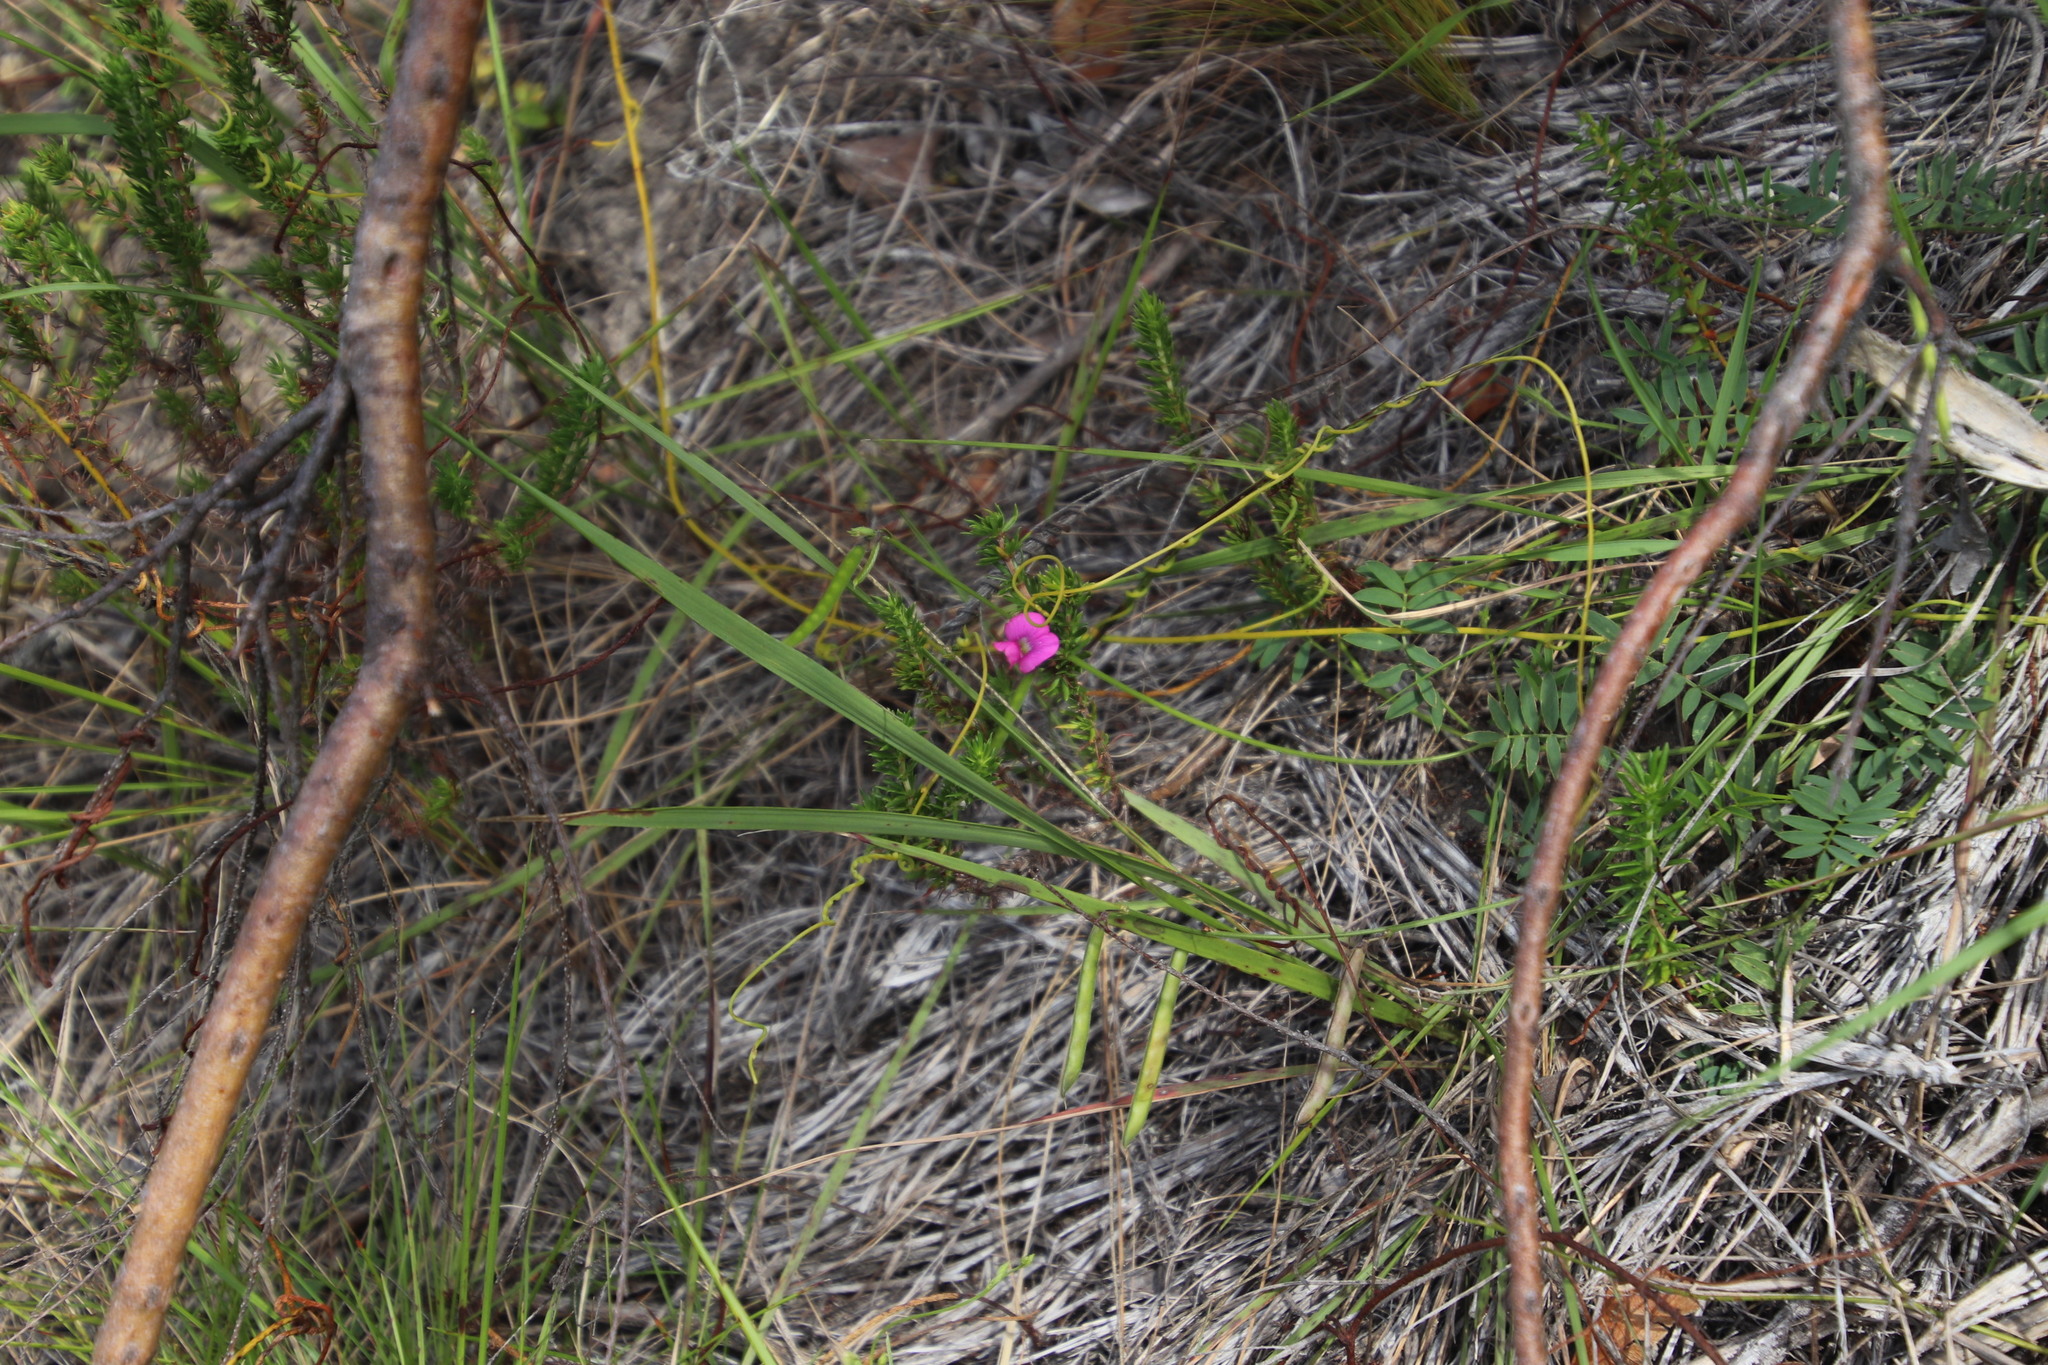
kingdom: Plantae
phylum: Tracheophyta
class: Magnoliopsida
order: Fabales
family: Fabaceae
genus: Tephrosia
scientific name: Tephrosia capensis
